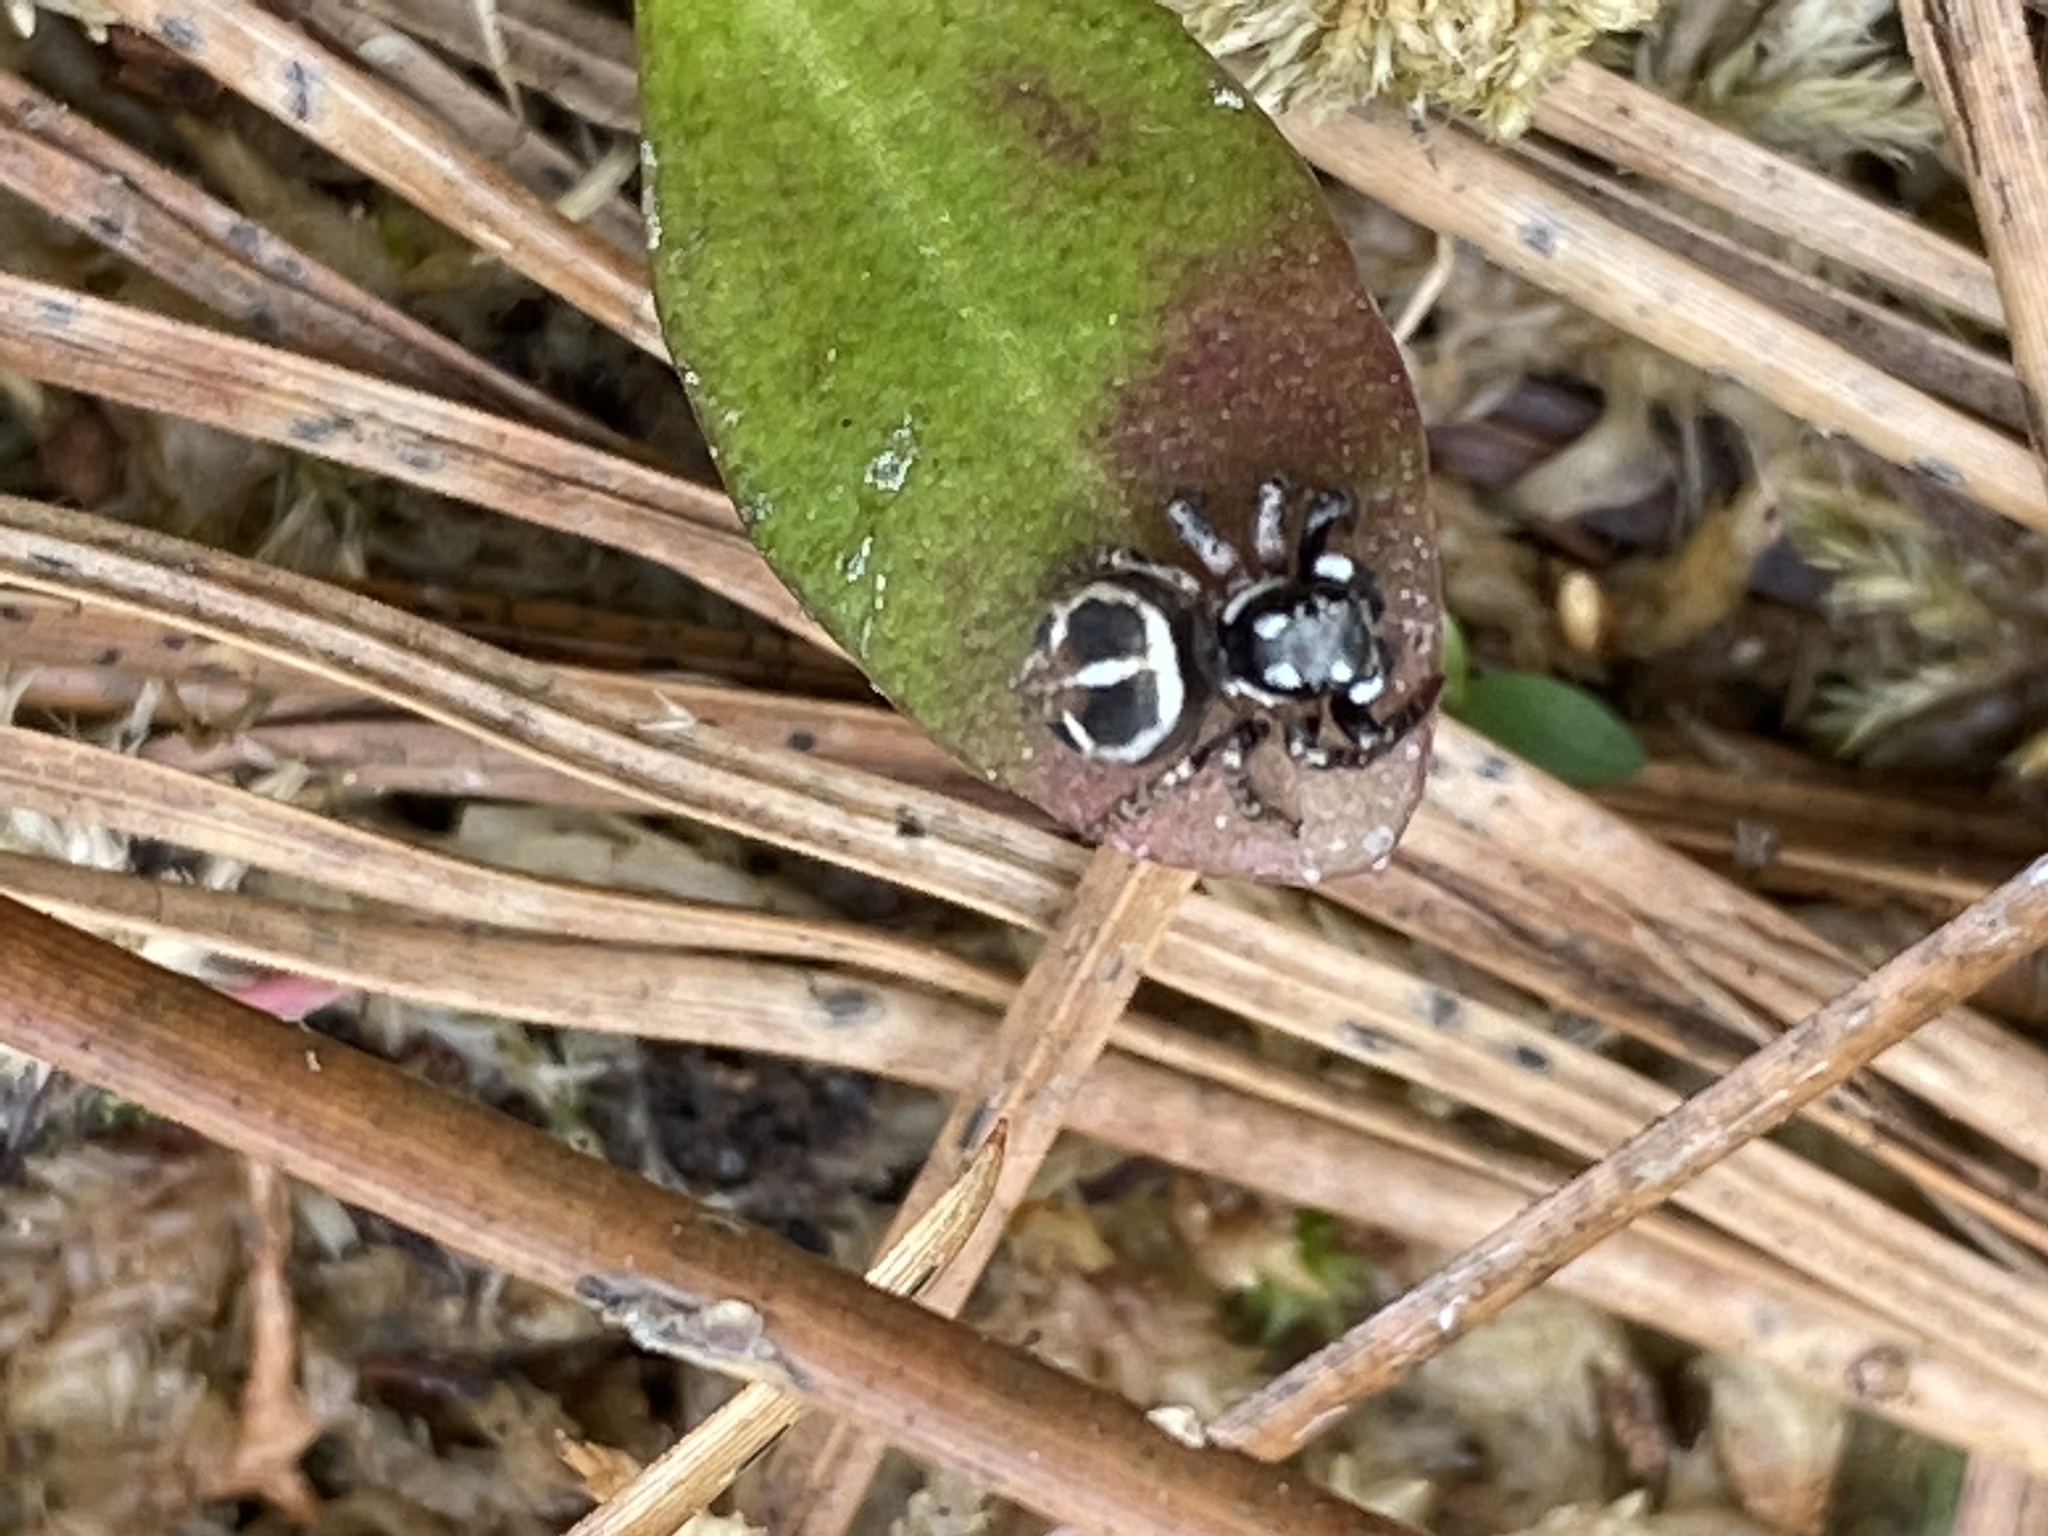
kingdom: Animalia
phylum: Arthropoda
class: Arachnida
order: Araneae
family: Salticidae
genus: Anasaitis
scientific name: Anasaitis canosa
